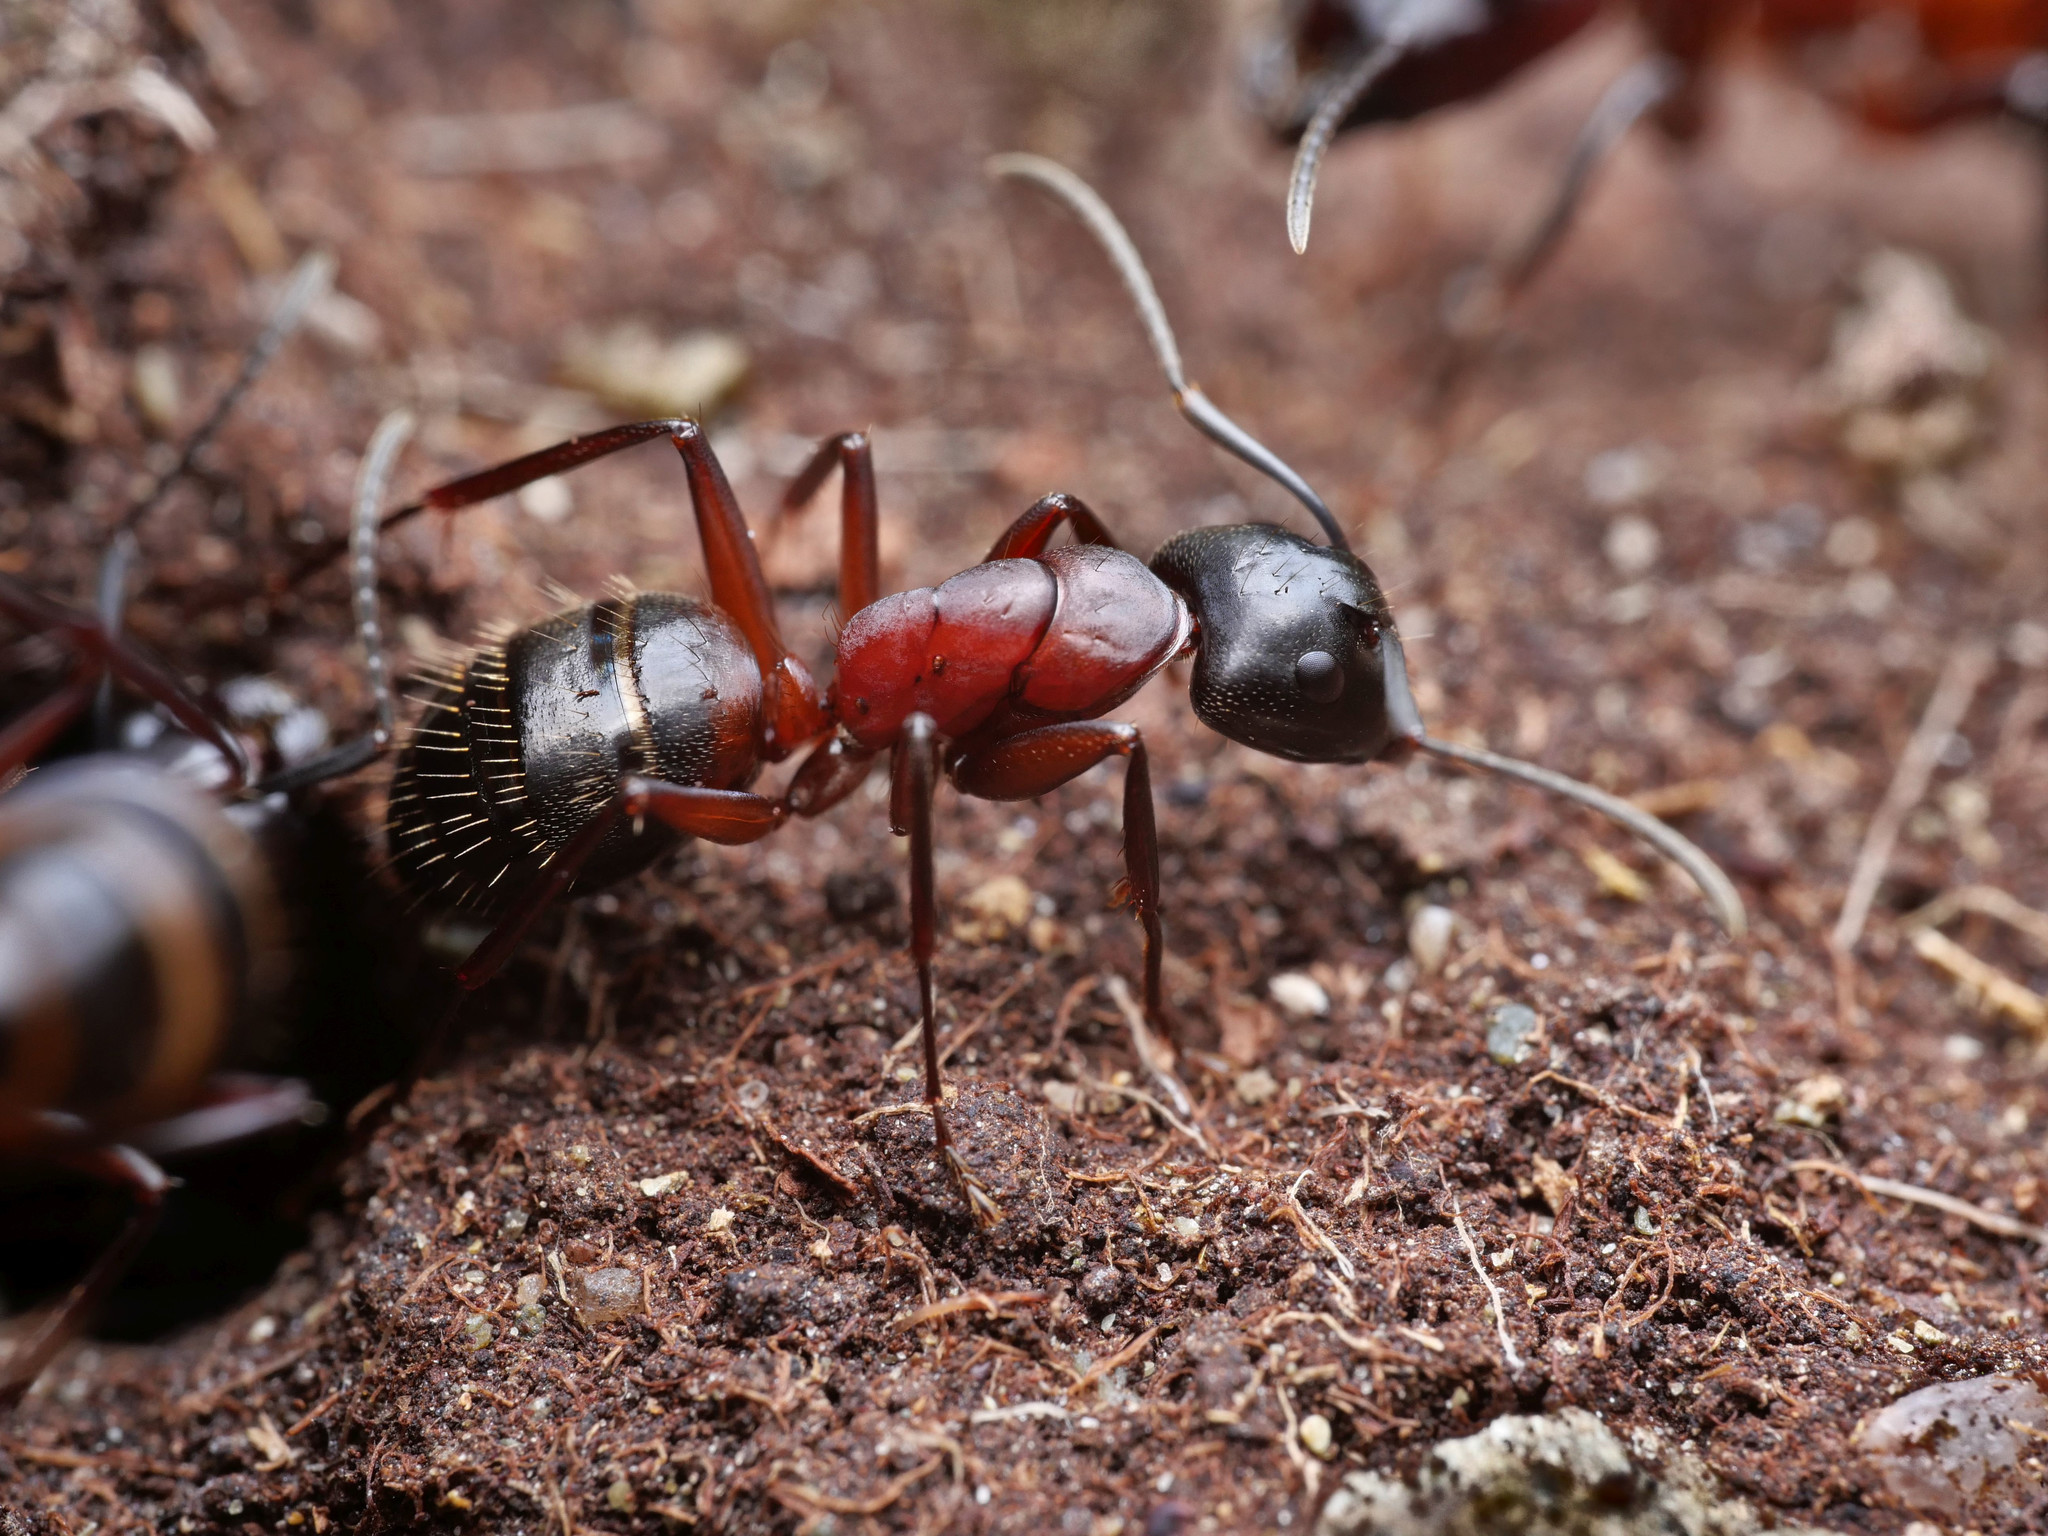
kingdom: Animalia
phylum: Arthropoda
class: Insecta
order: Hymenoptera
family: Formicidae
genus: Camponotus
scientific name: Camponotus ligniperdus
